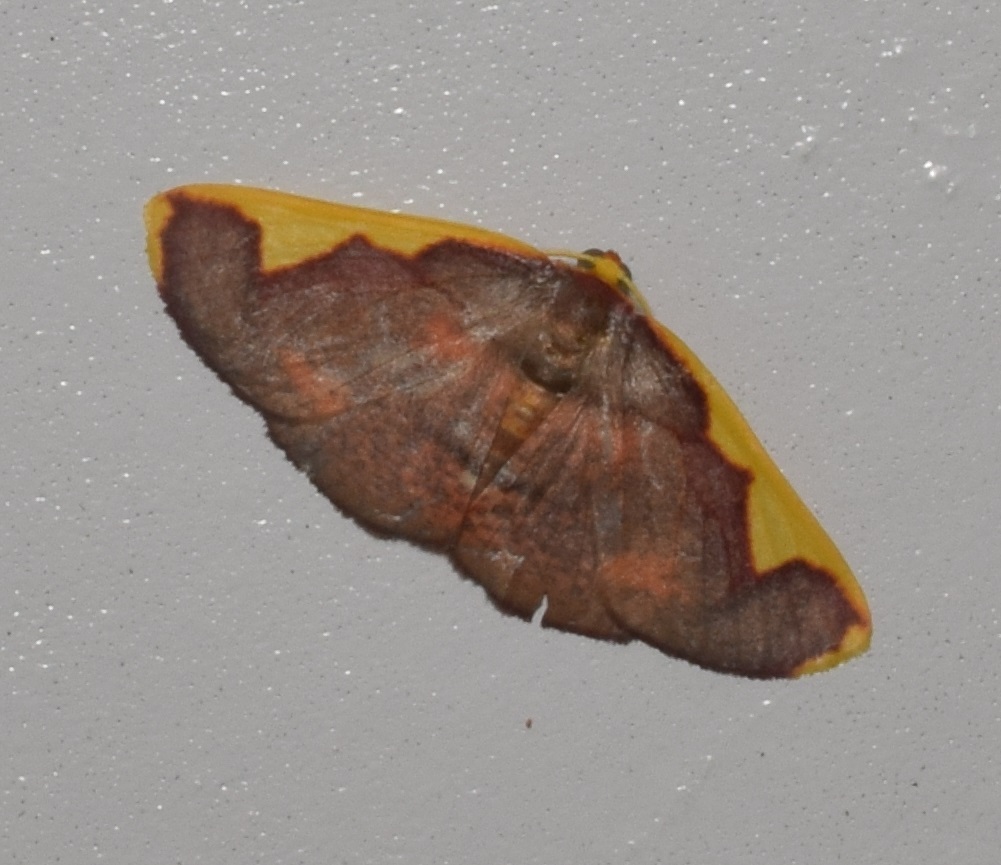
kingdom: Animalia
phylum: Arthropoda
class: Insecta
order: Lepidoptera
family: Geometridae
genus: Nothomiza
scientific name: Nothomiza formosa
